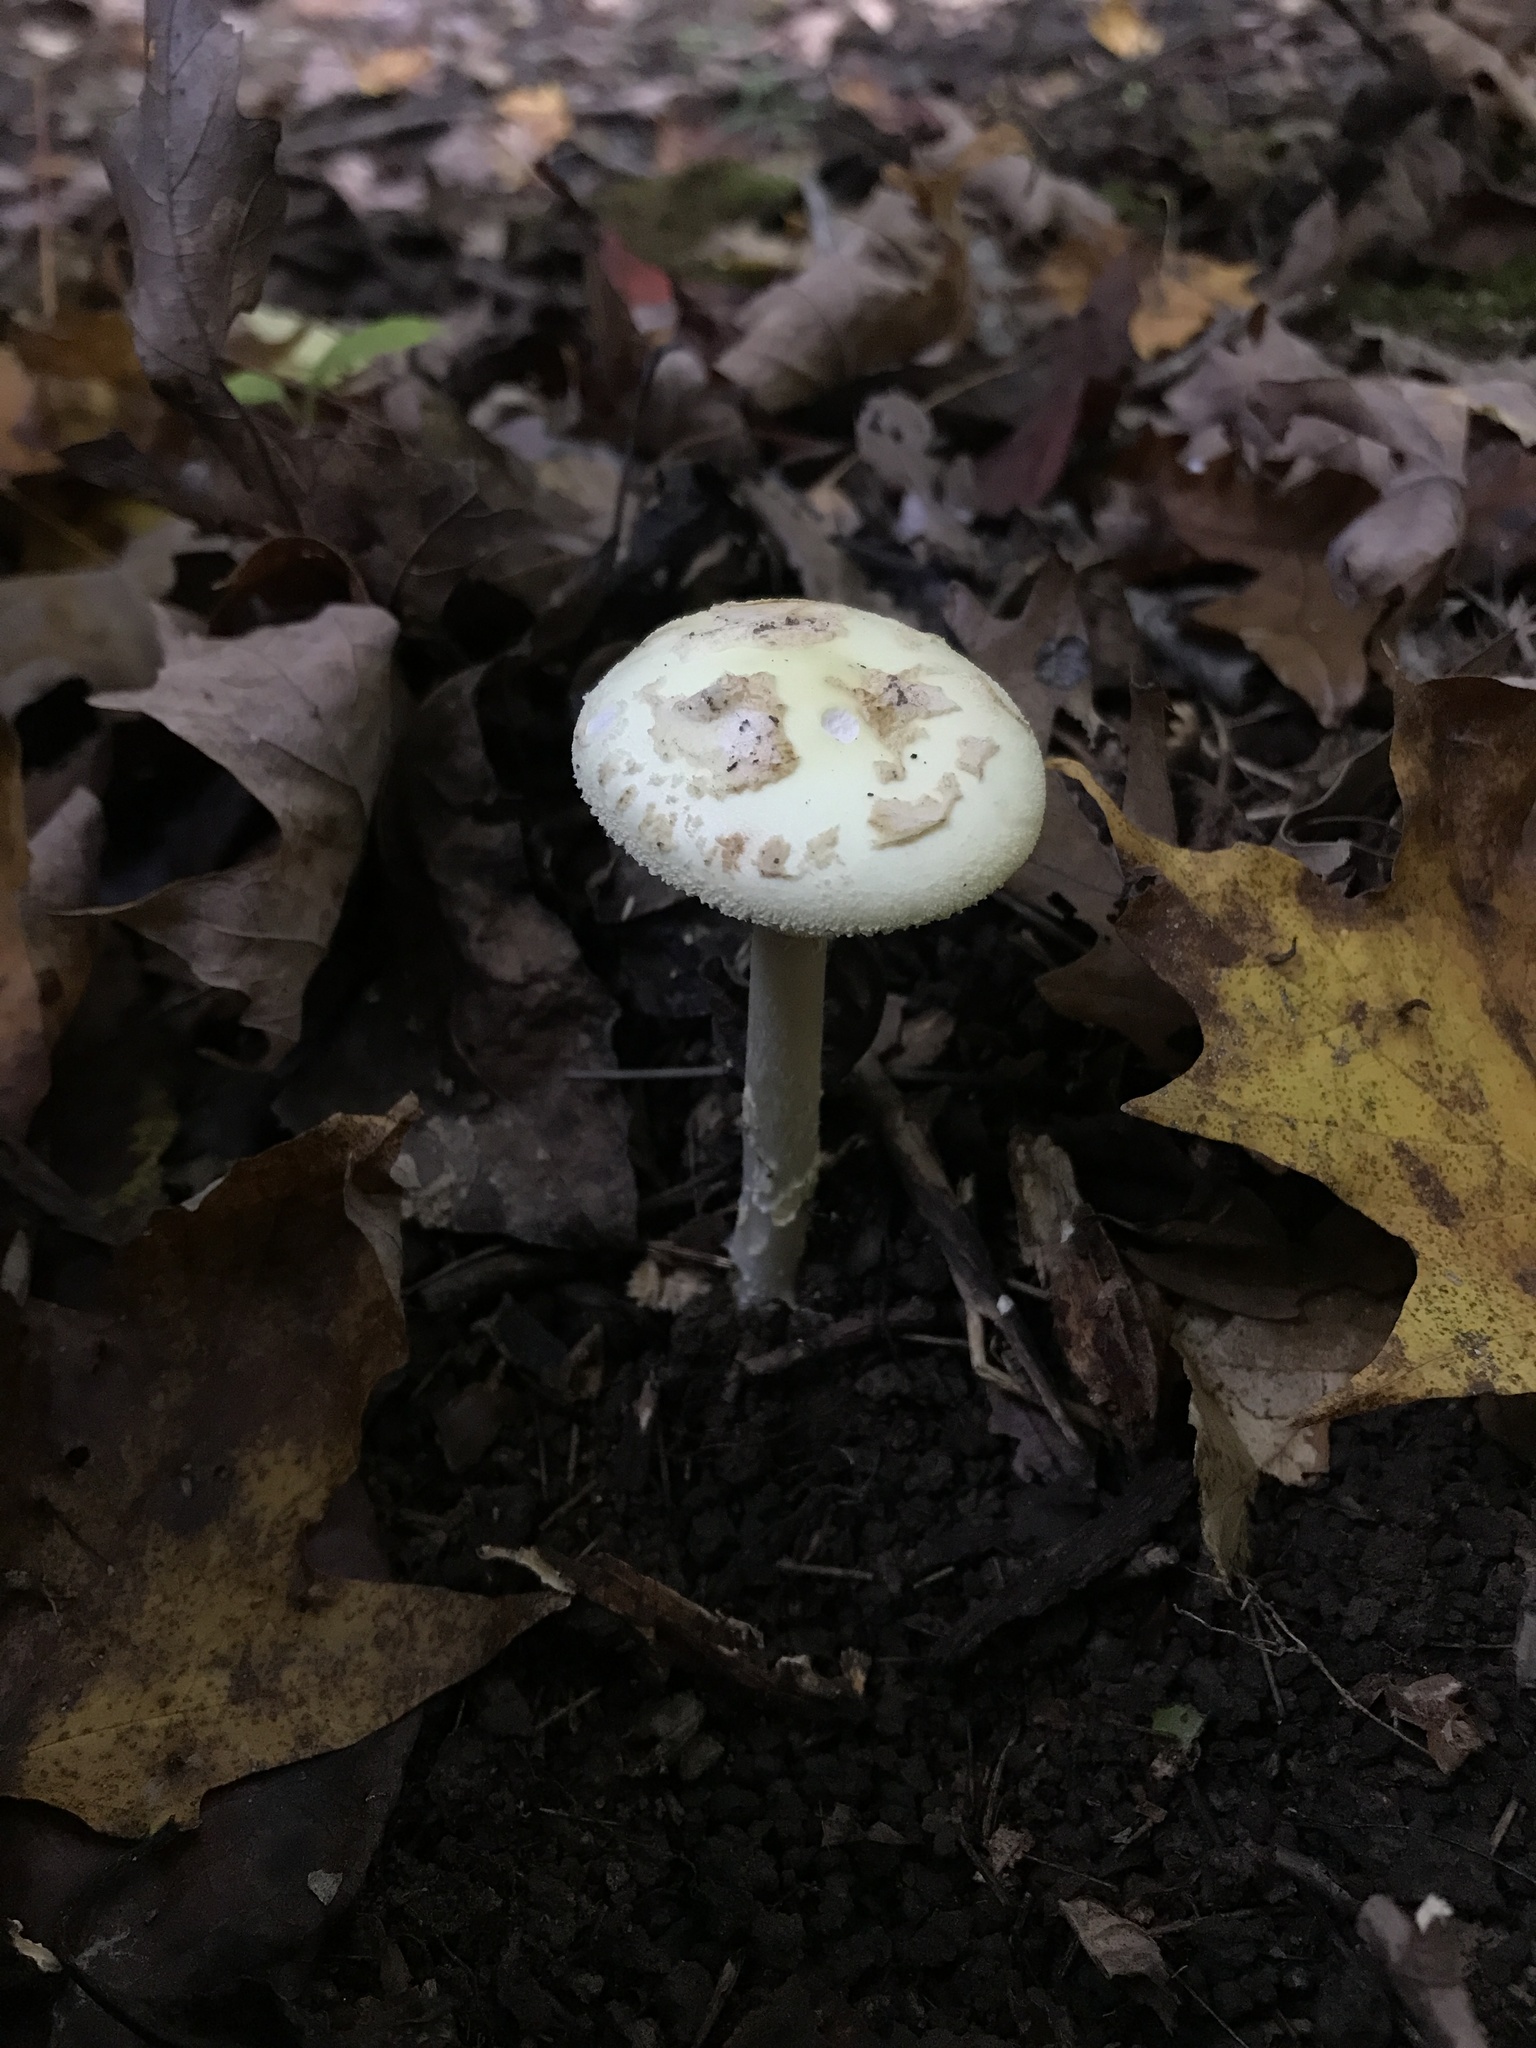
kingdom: Fungi
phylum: Basidiomycota
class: Agaricomycetes
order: Agaricales
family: Amanitaceae
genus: Amanita
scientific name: Amanita lavendula
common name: Coker's lavender staining amanita
